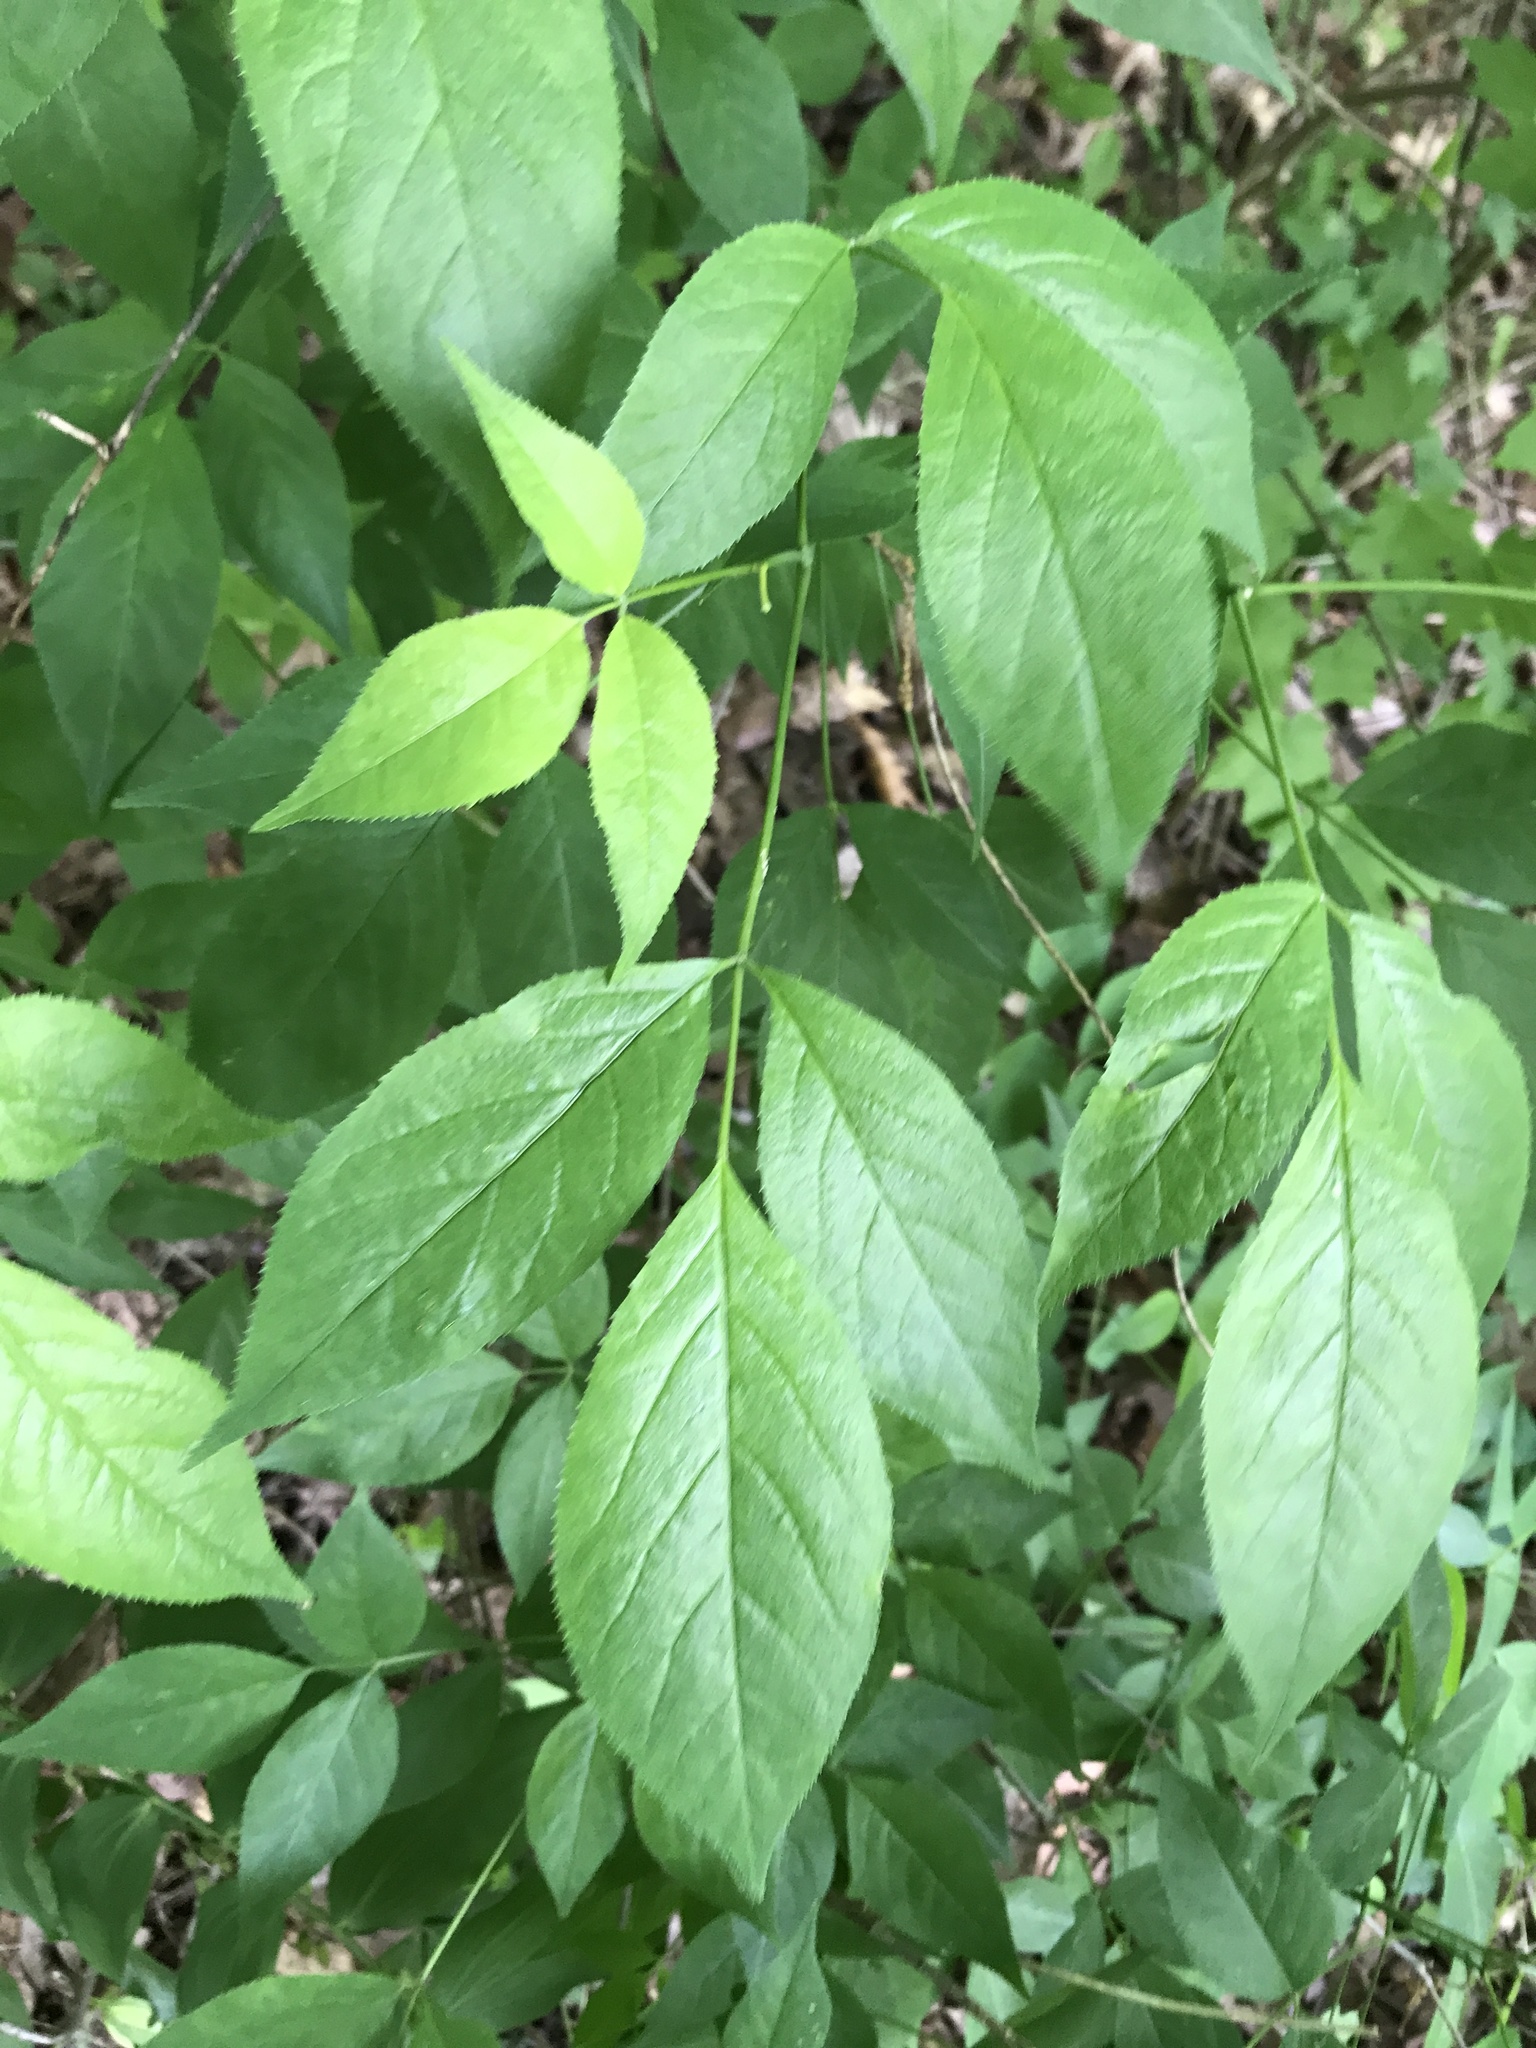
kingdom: Plantae
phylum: Tracheophyta
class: Magnoliopsida
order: Crossosomatales
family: Staphyleaceae
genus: Staphylea
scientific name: Staphylea trifolia
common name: American bladdernut
